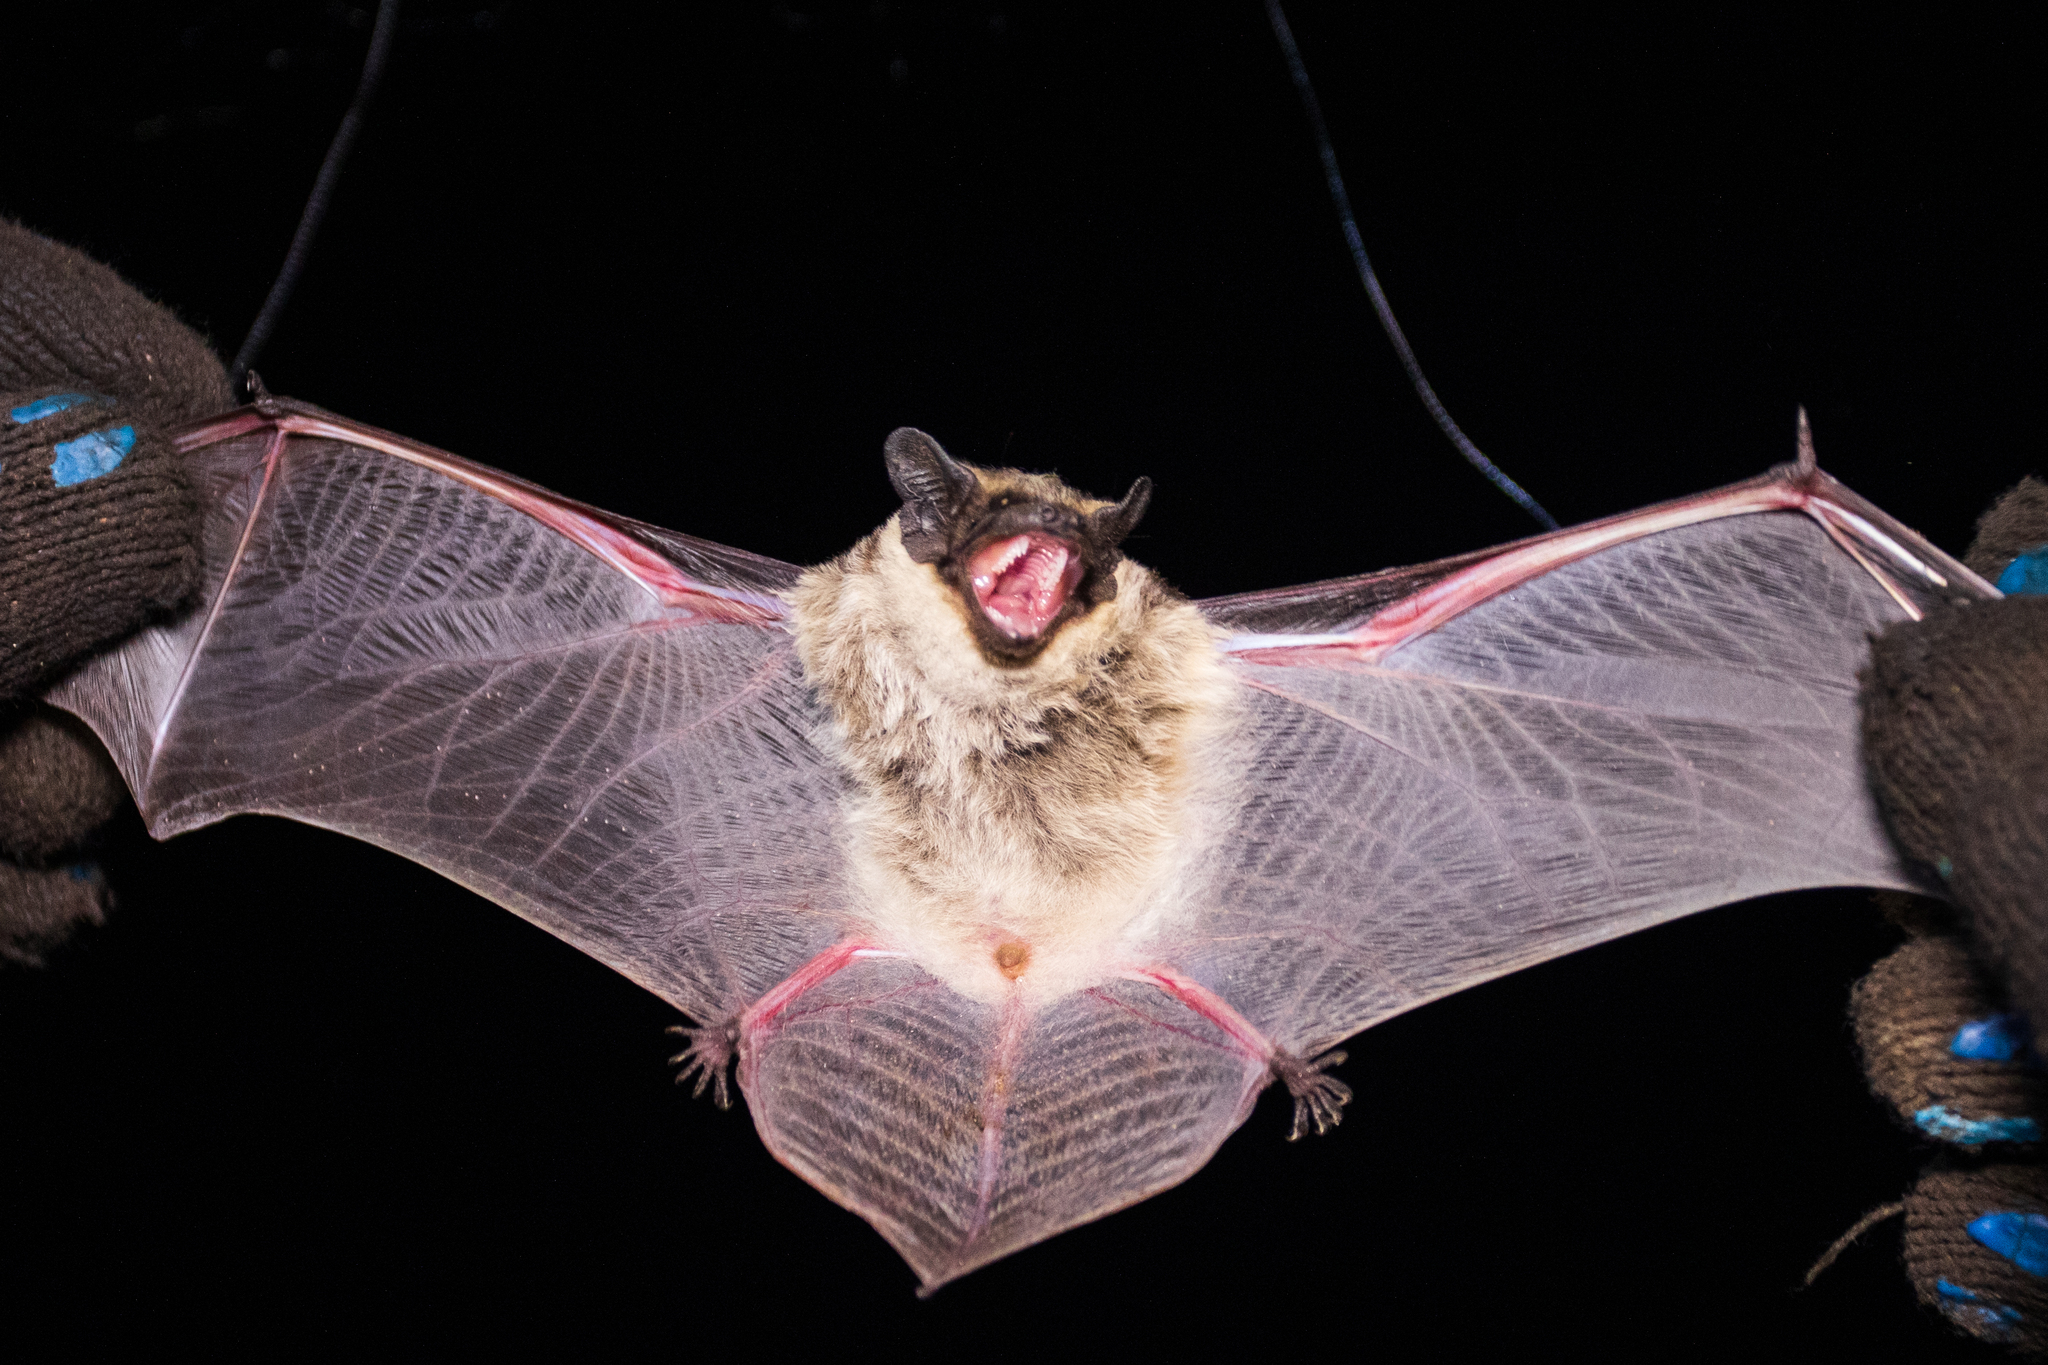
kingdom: Animalia
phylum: Chordata
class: Mammalia
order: Chiroptera
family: Vespertilionidae
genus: Vespertilio
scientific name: Vespertilio murinus
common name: Particolored bat
